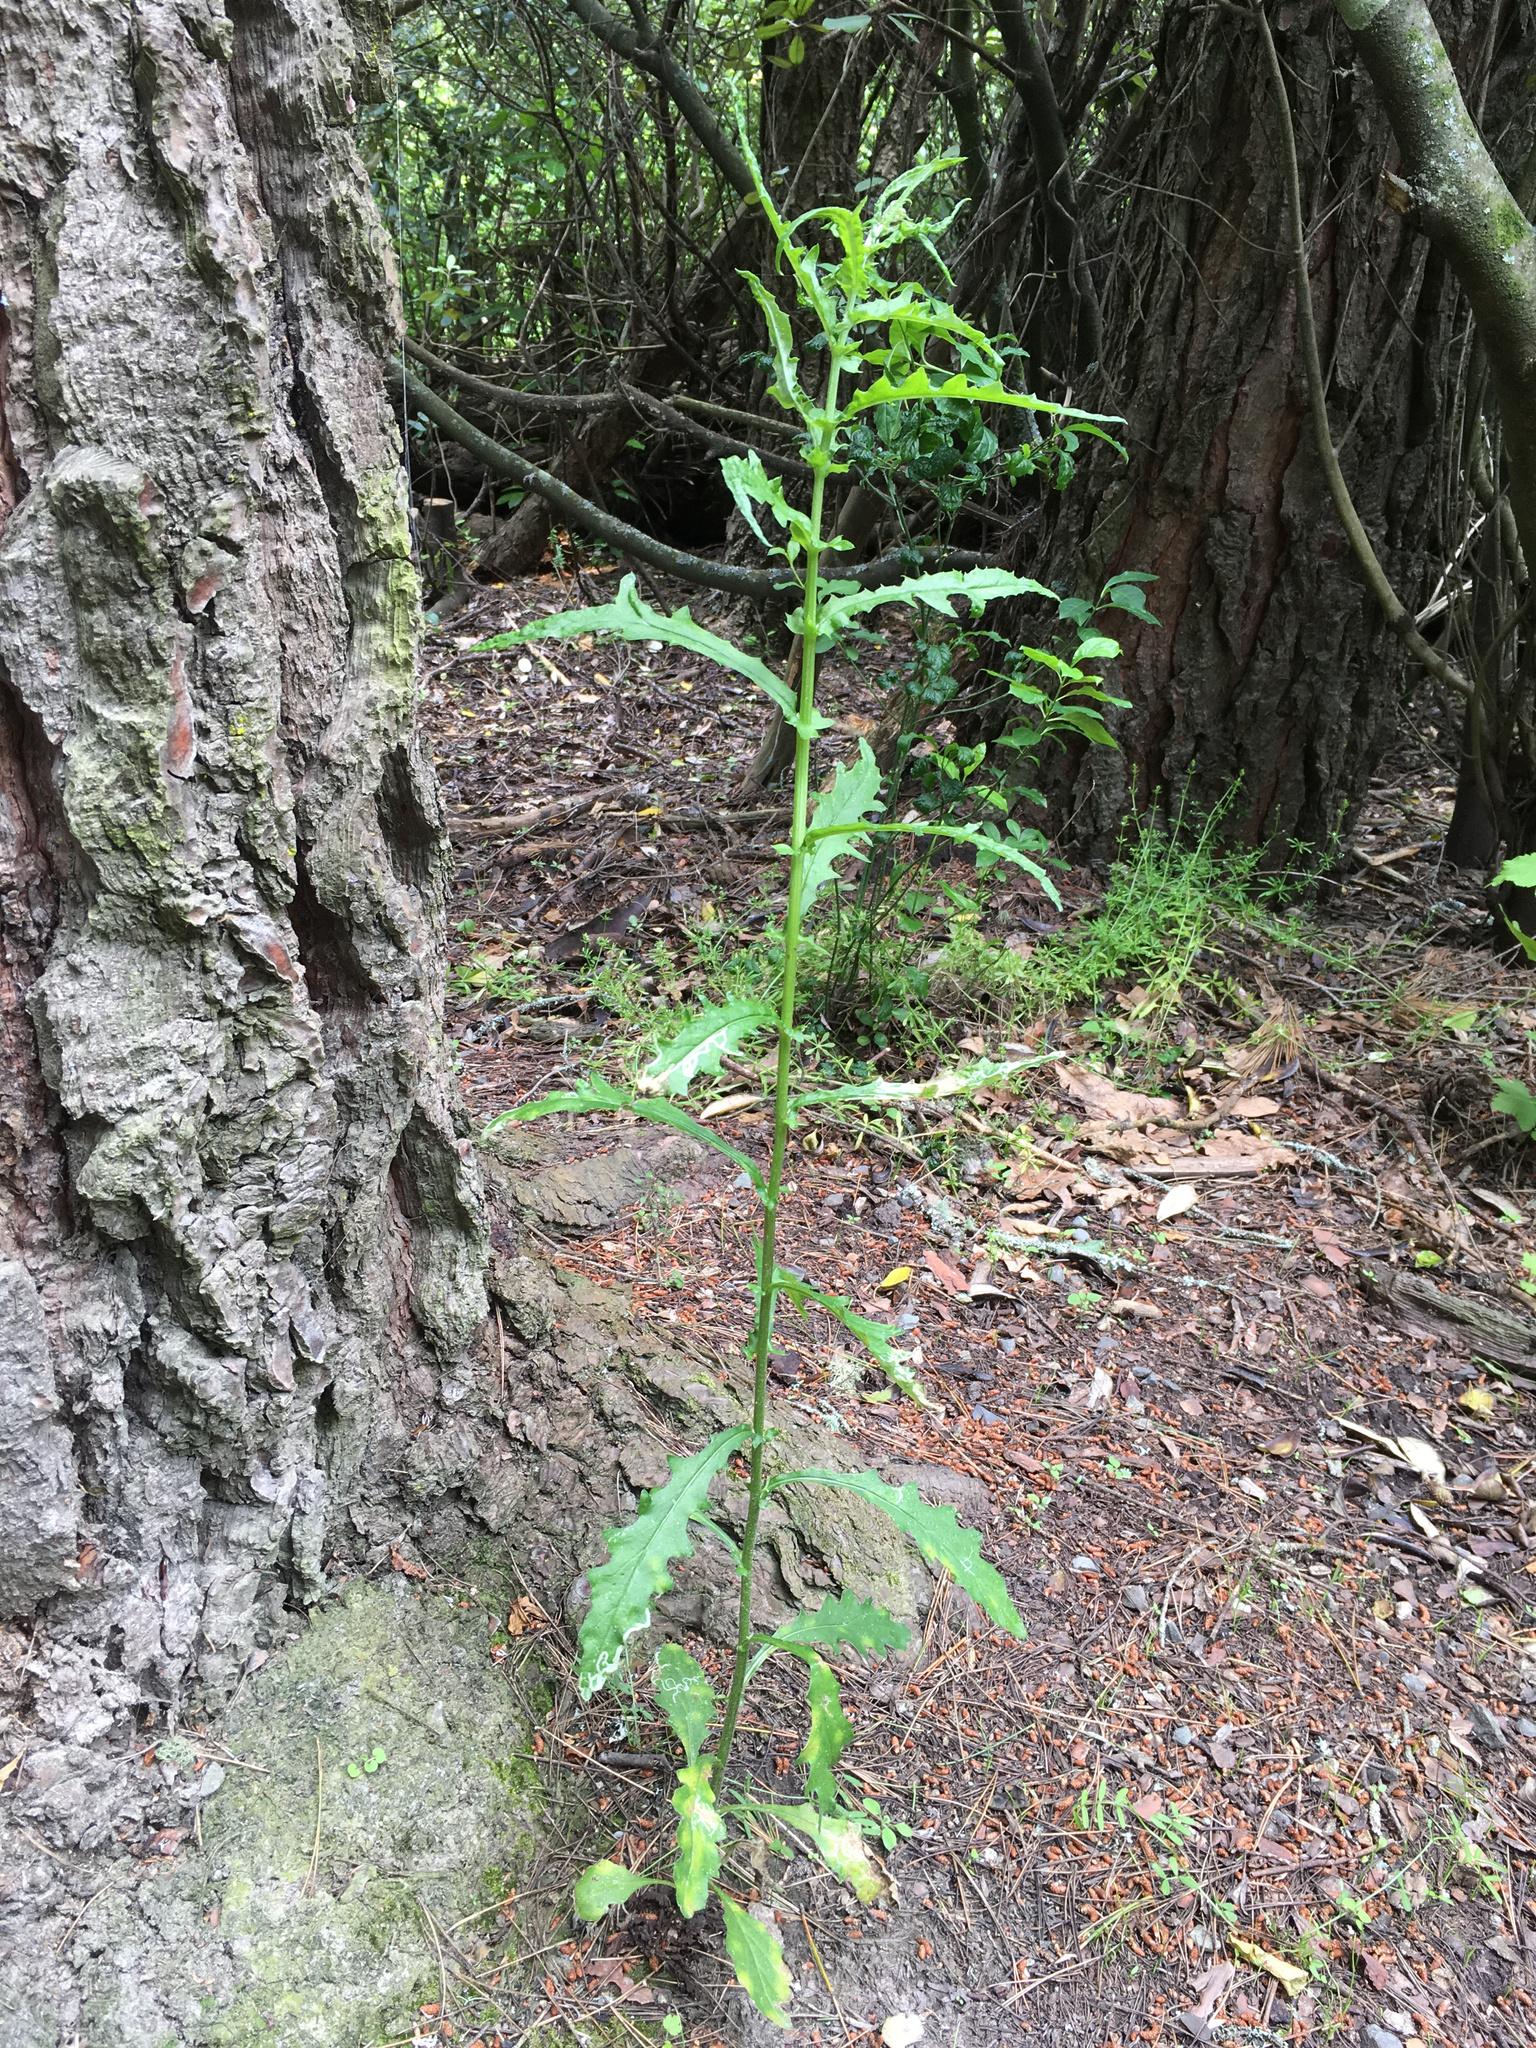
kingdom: Plantae
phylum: Tracheophyta
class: Magnoliopsida
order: Asterales
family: Asteraceae
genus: Senecio
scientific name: Senecio glomeratus
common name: Cutleaf burnweed
